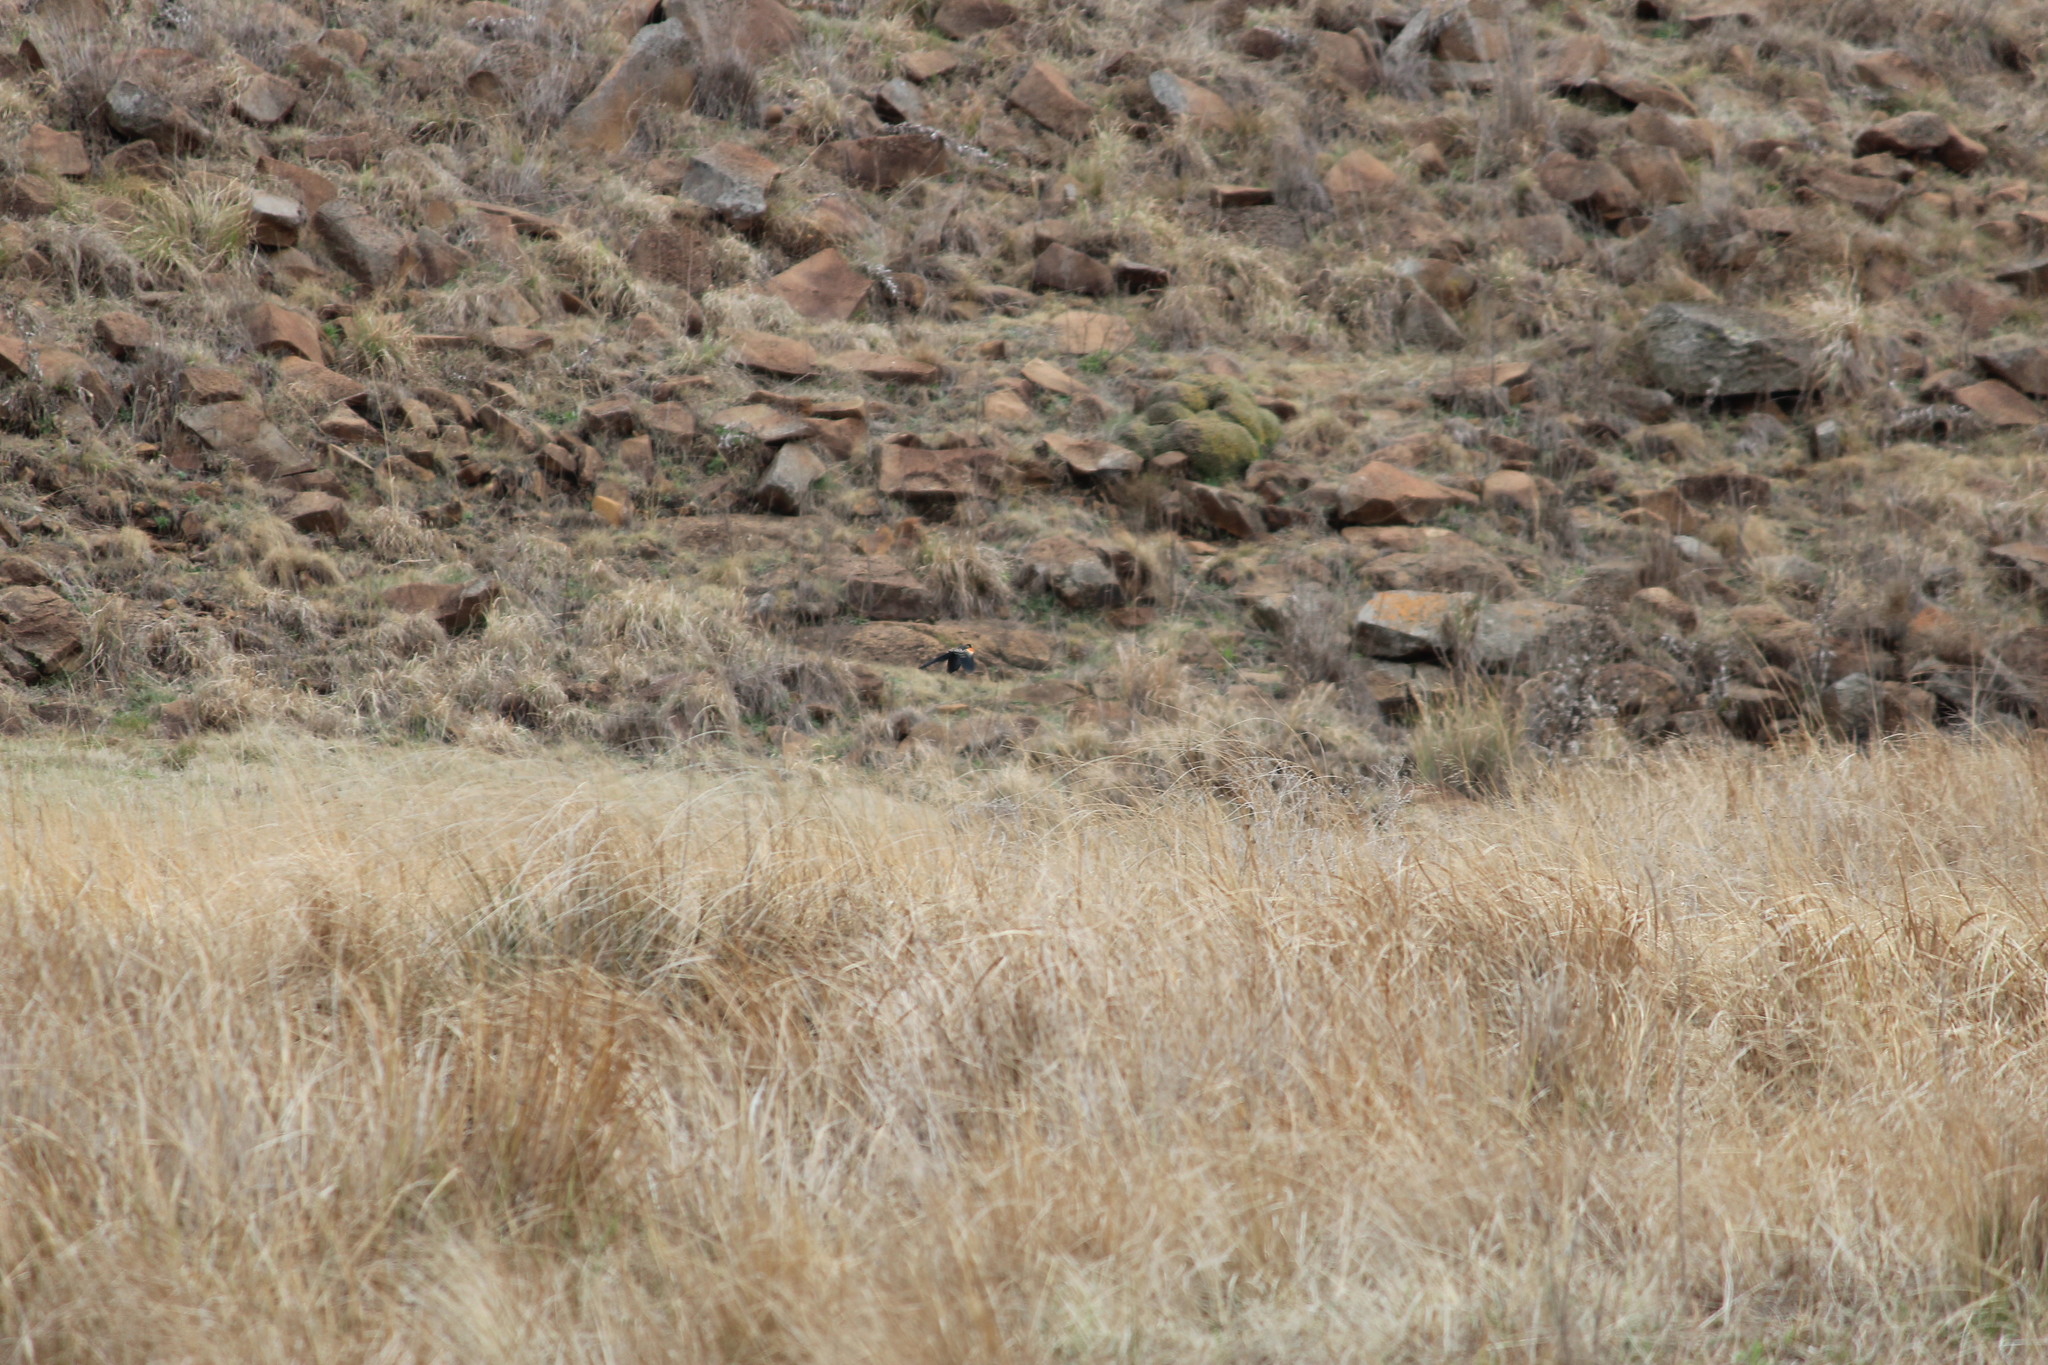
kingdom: Animalia
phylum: Chordata
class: Aves
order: Passeriformes
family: Ploceidae
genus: Euplectes
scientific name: Euplectes progne
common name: Long-tailed widowbird
